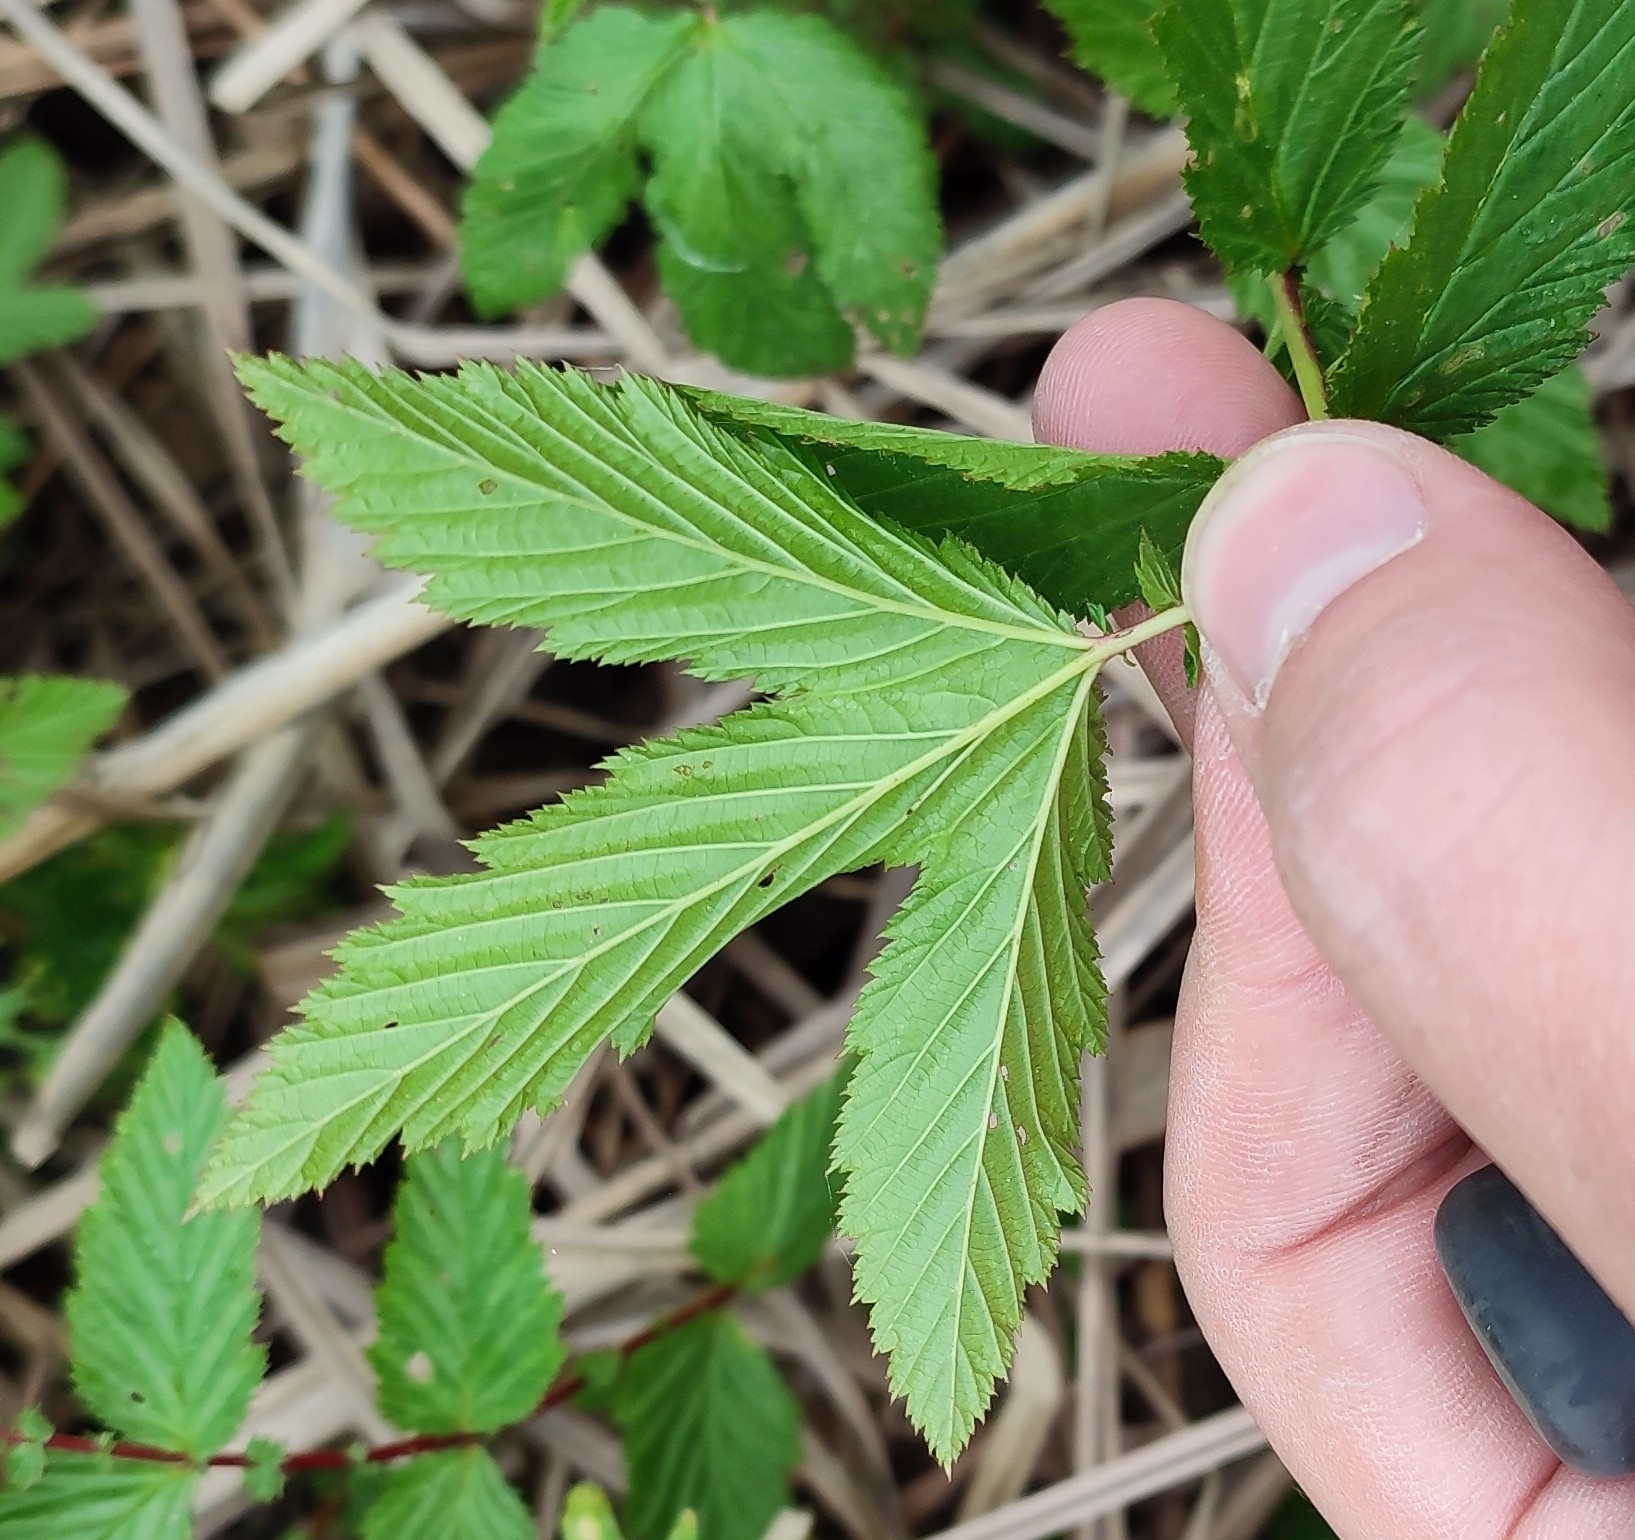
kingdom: Plantae
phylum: Tracheophyta
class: Magnoliopsida
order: Rosales
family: Rosaceae
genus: Filipendula
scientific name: Filipendula ulmaria
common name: Meadowsweet
